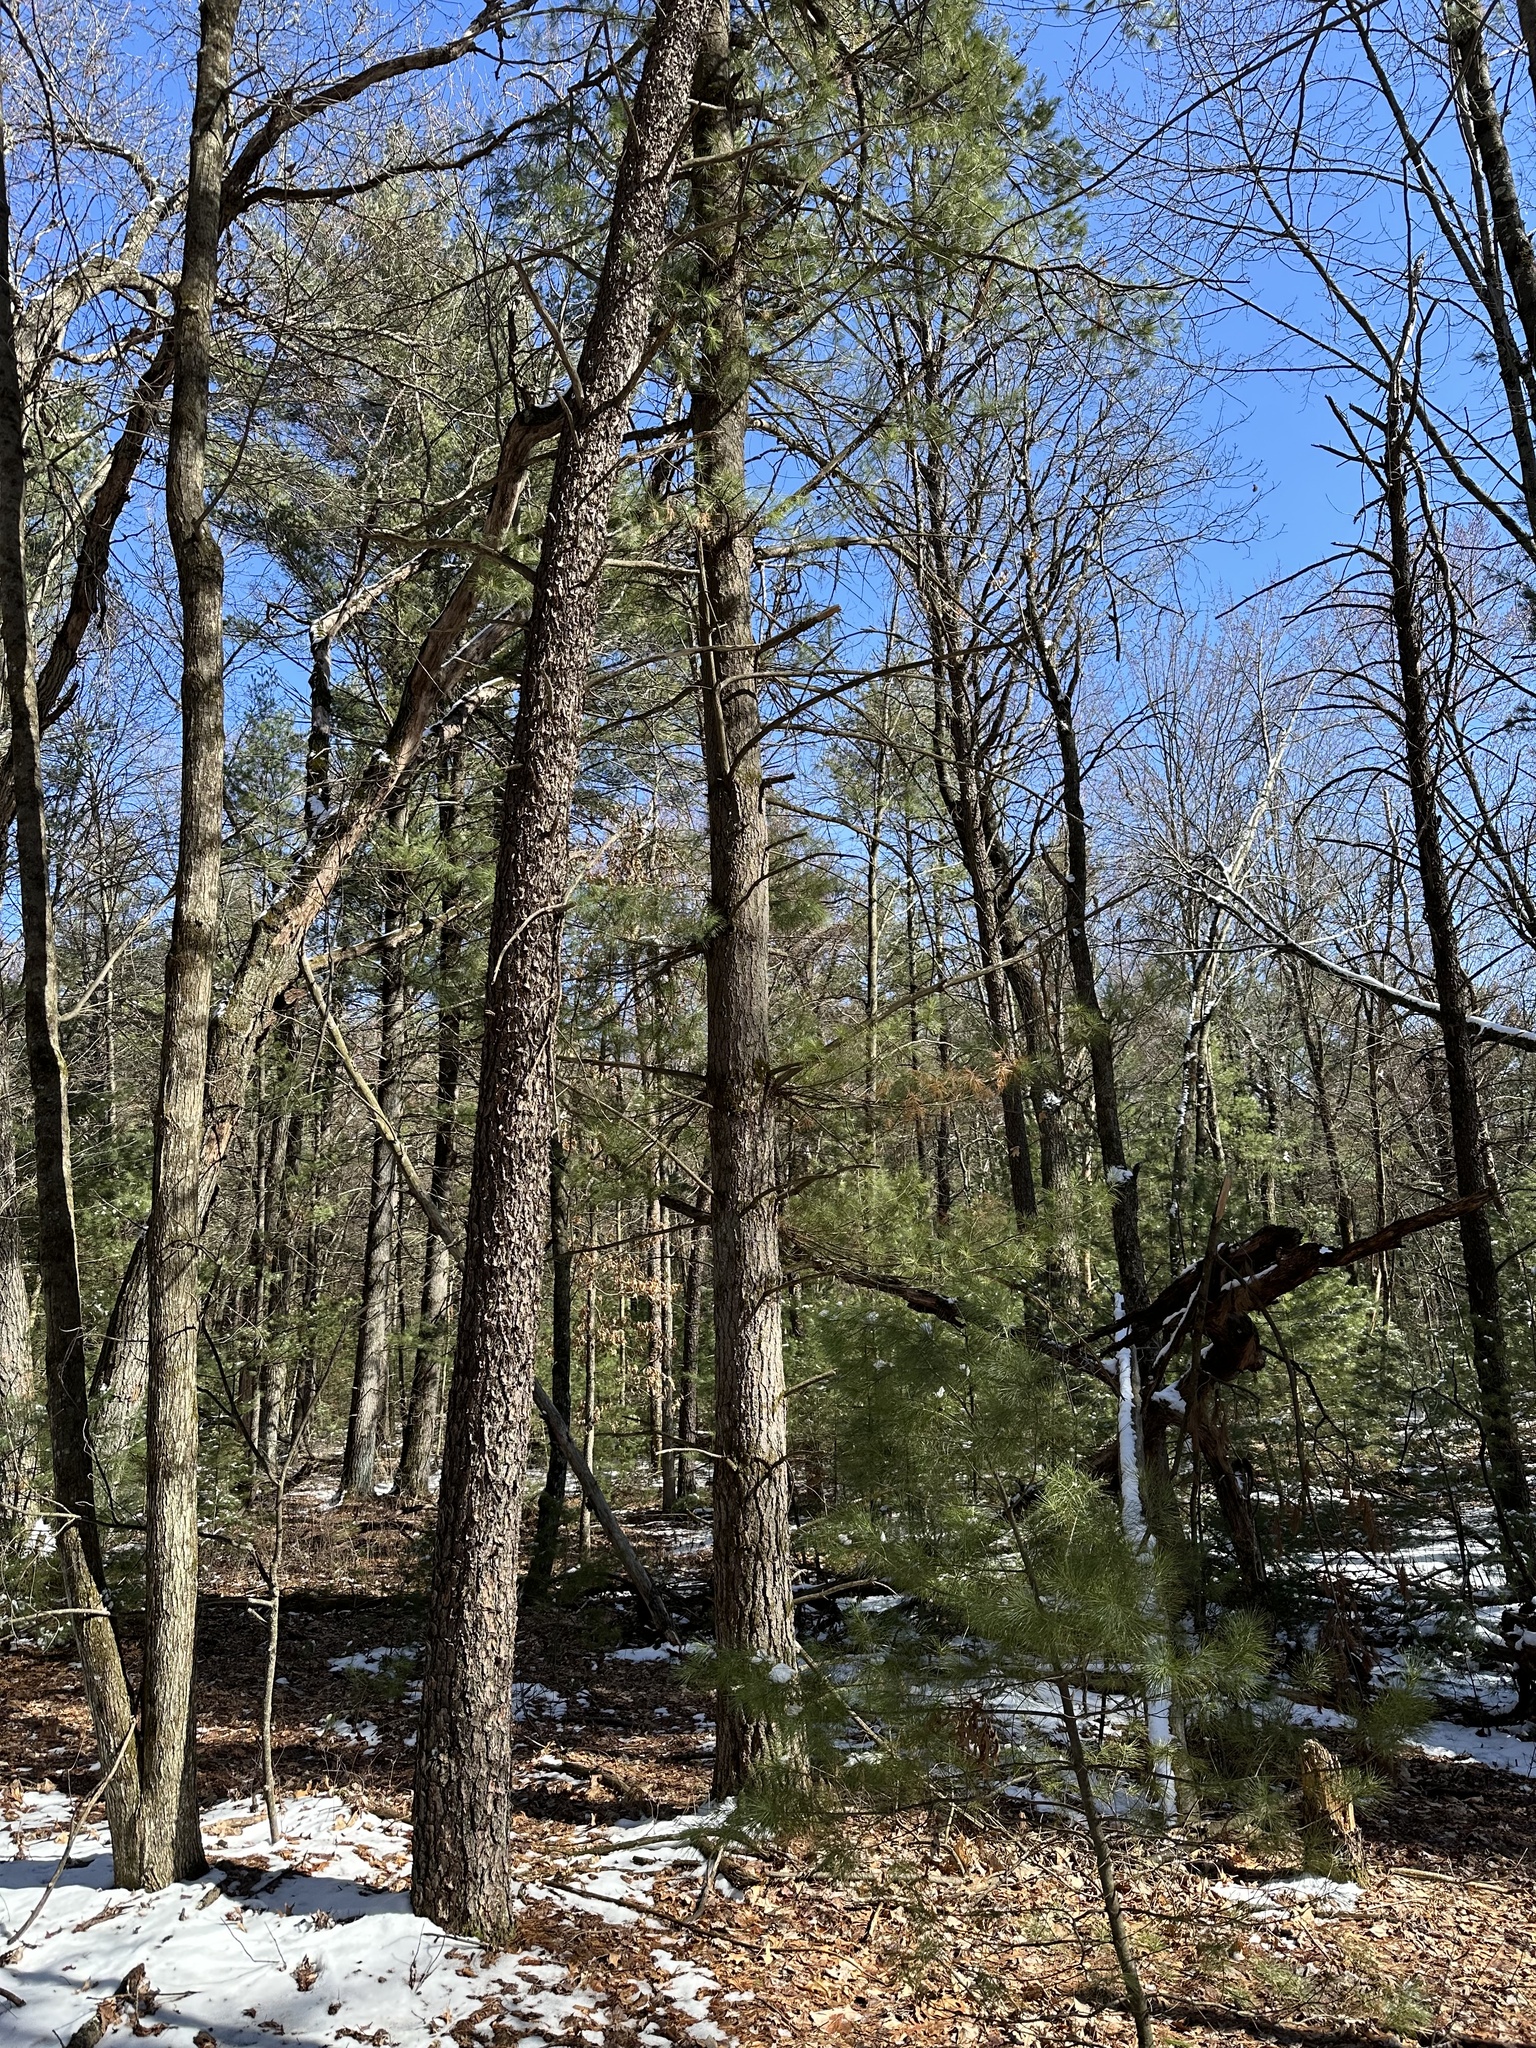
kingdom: Plantae
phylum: Tracheophyta
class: Pinopsida
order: Pinales
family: Pinaceae
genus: Pinus
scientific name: Pinus banksiana
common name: Jack pine
